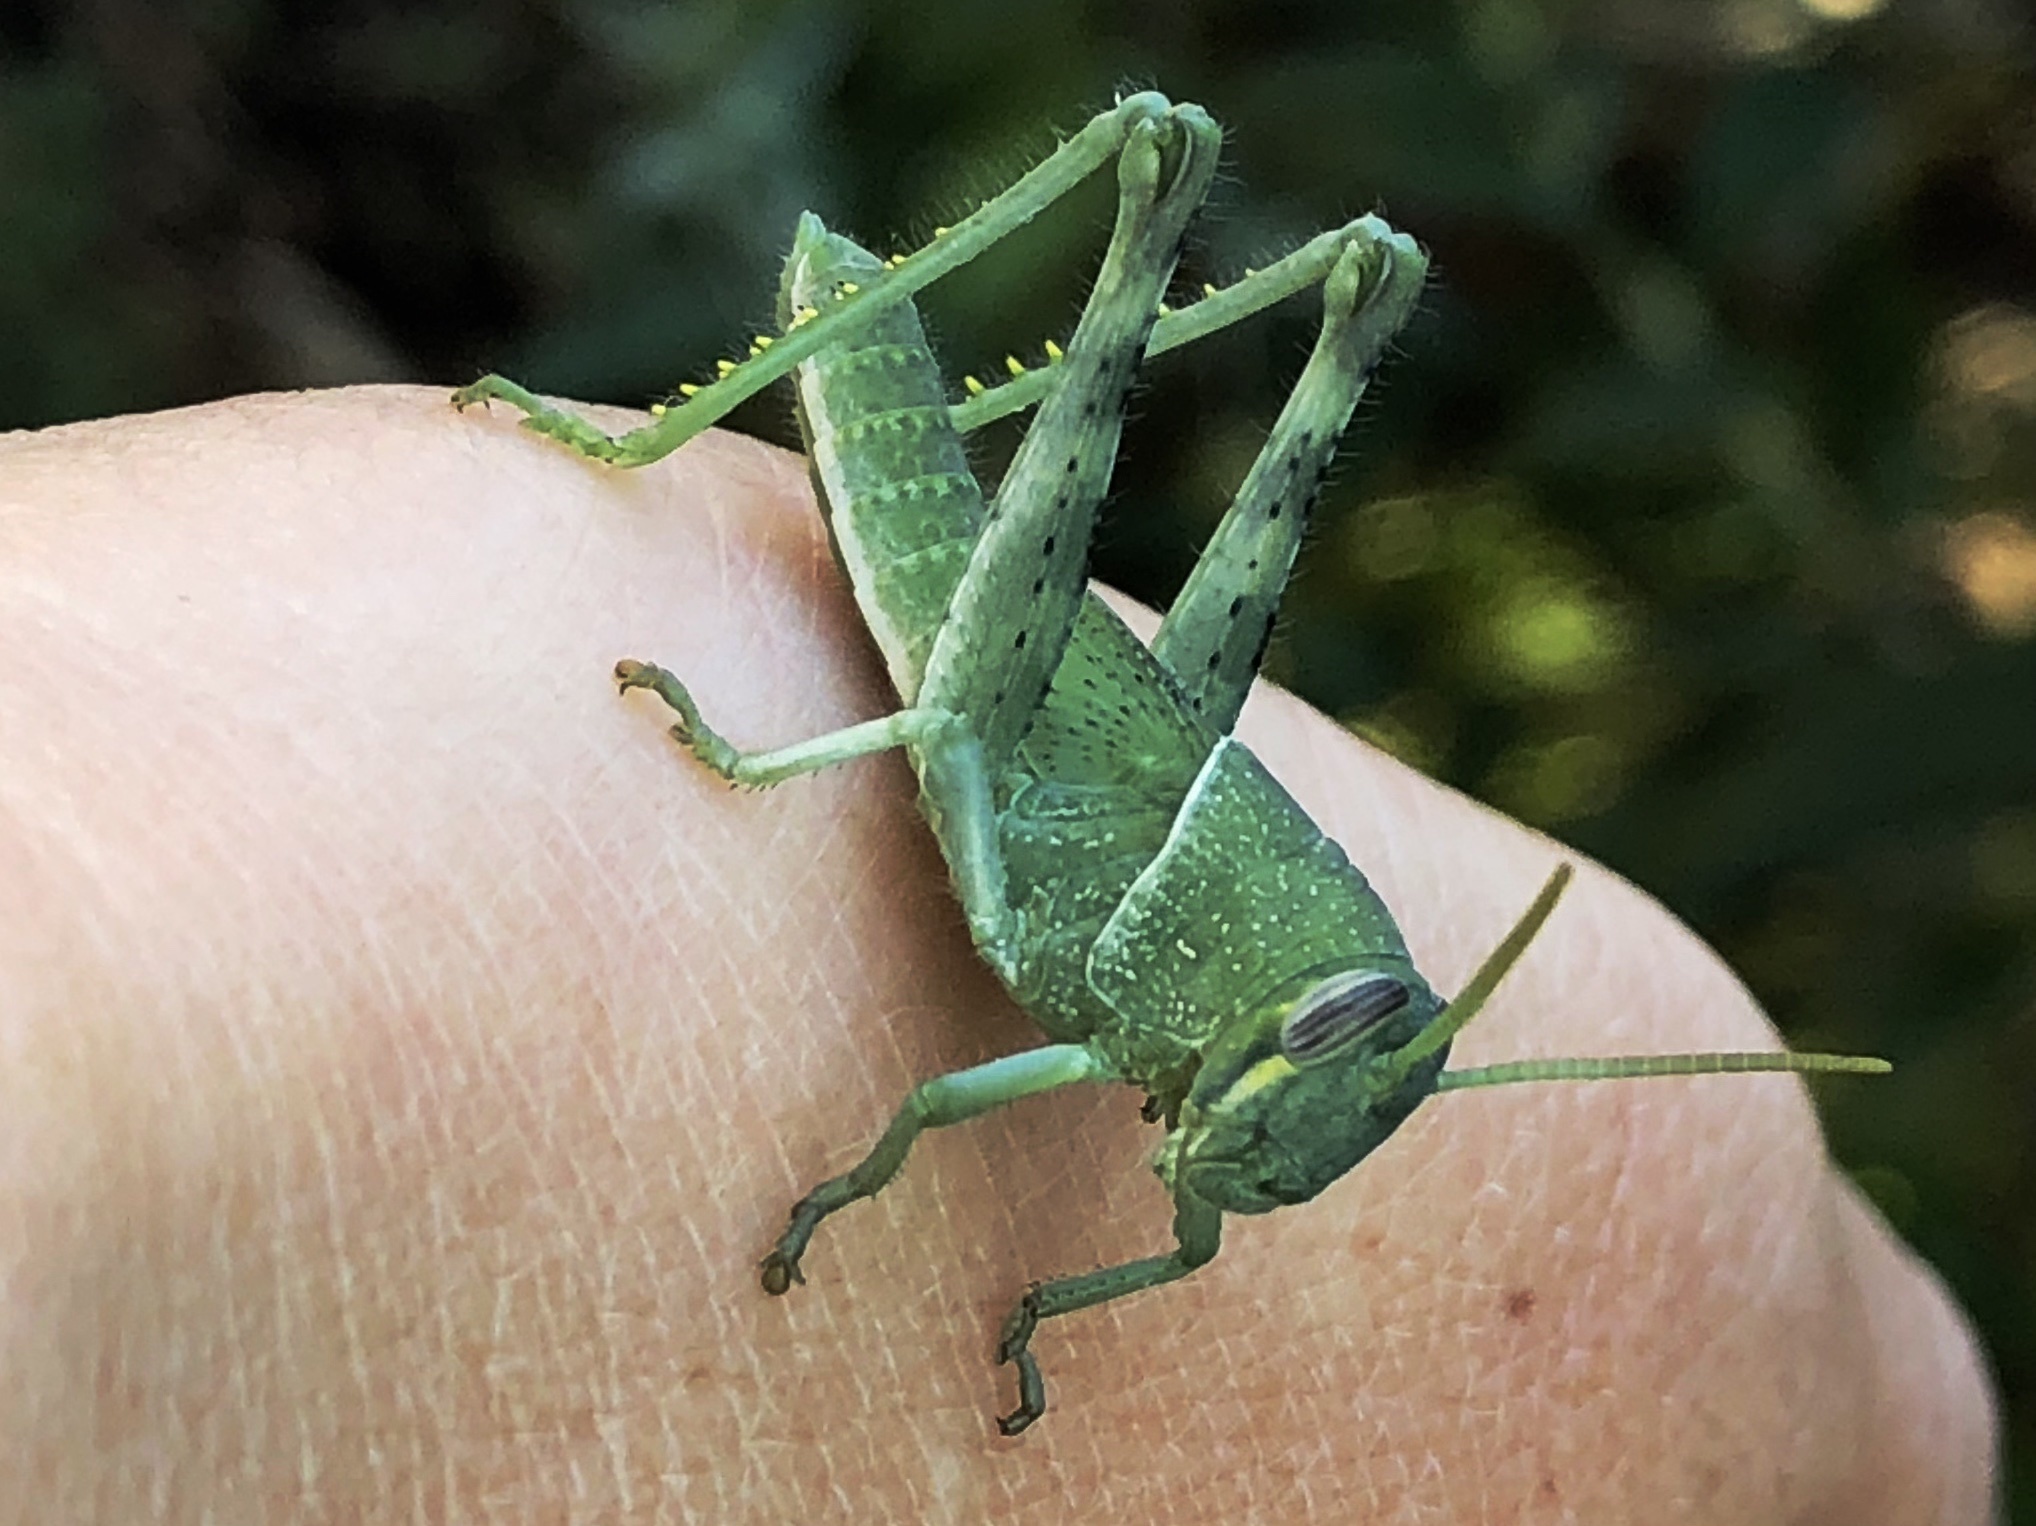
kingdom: Animalia
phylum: Arthropoda
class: Insecta
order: Orthoptera
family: Acrididae
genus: Schistocerca
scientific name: Schistocerca nitens
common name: Vagrant grasshopper
